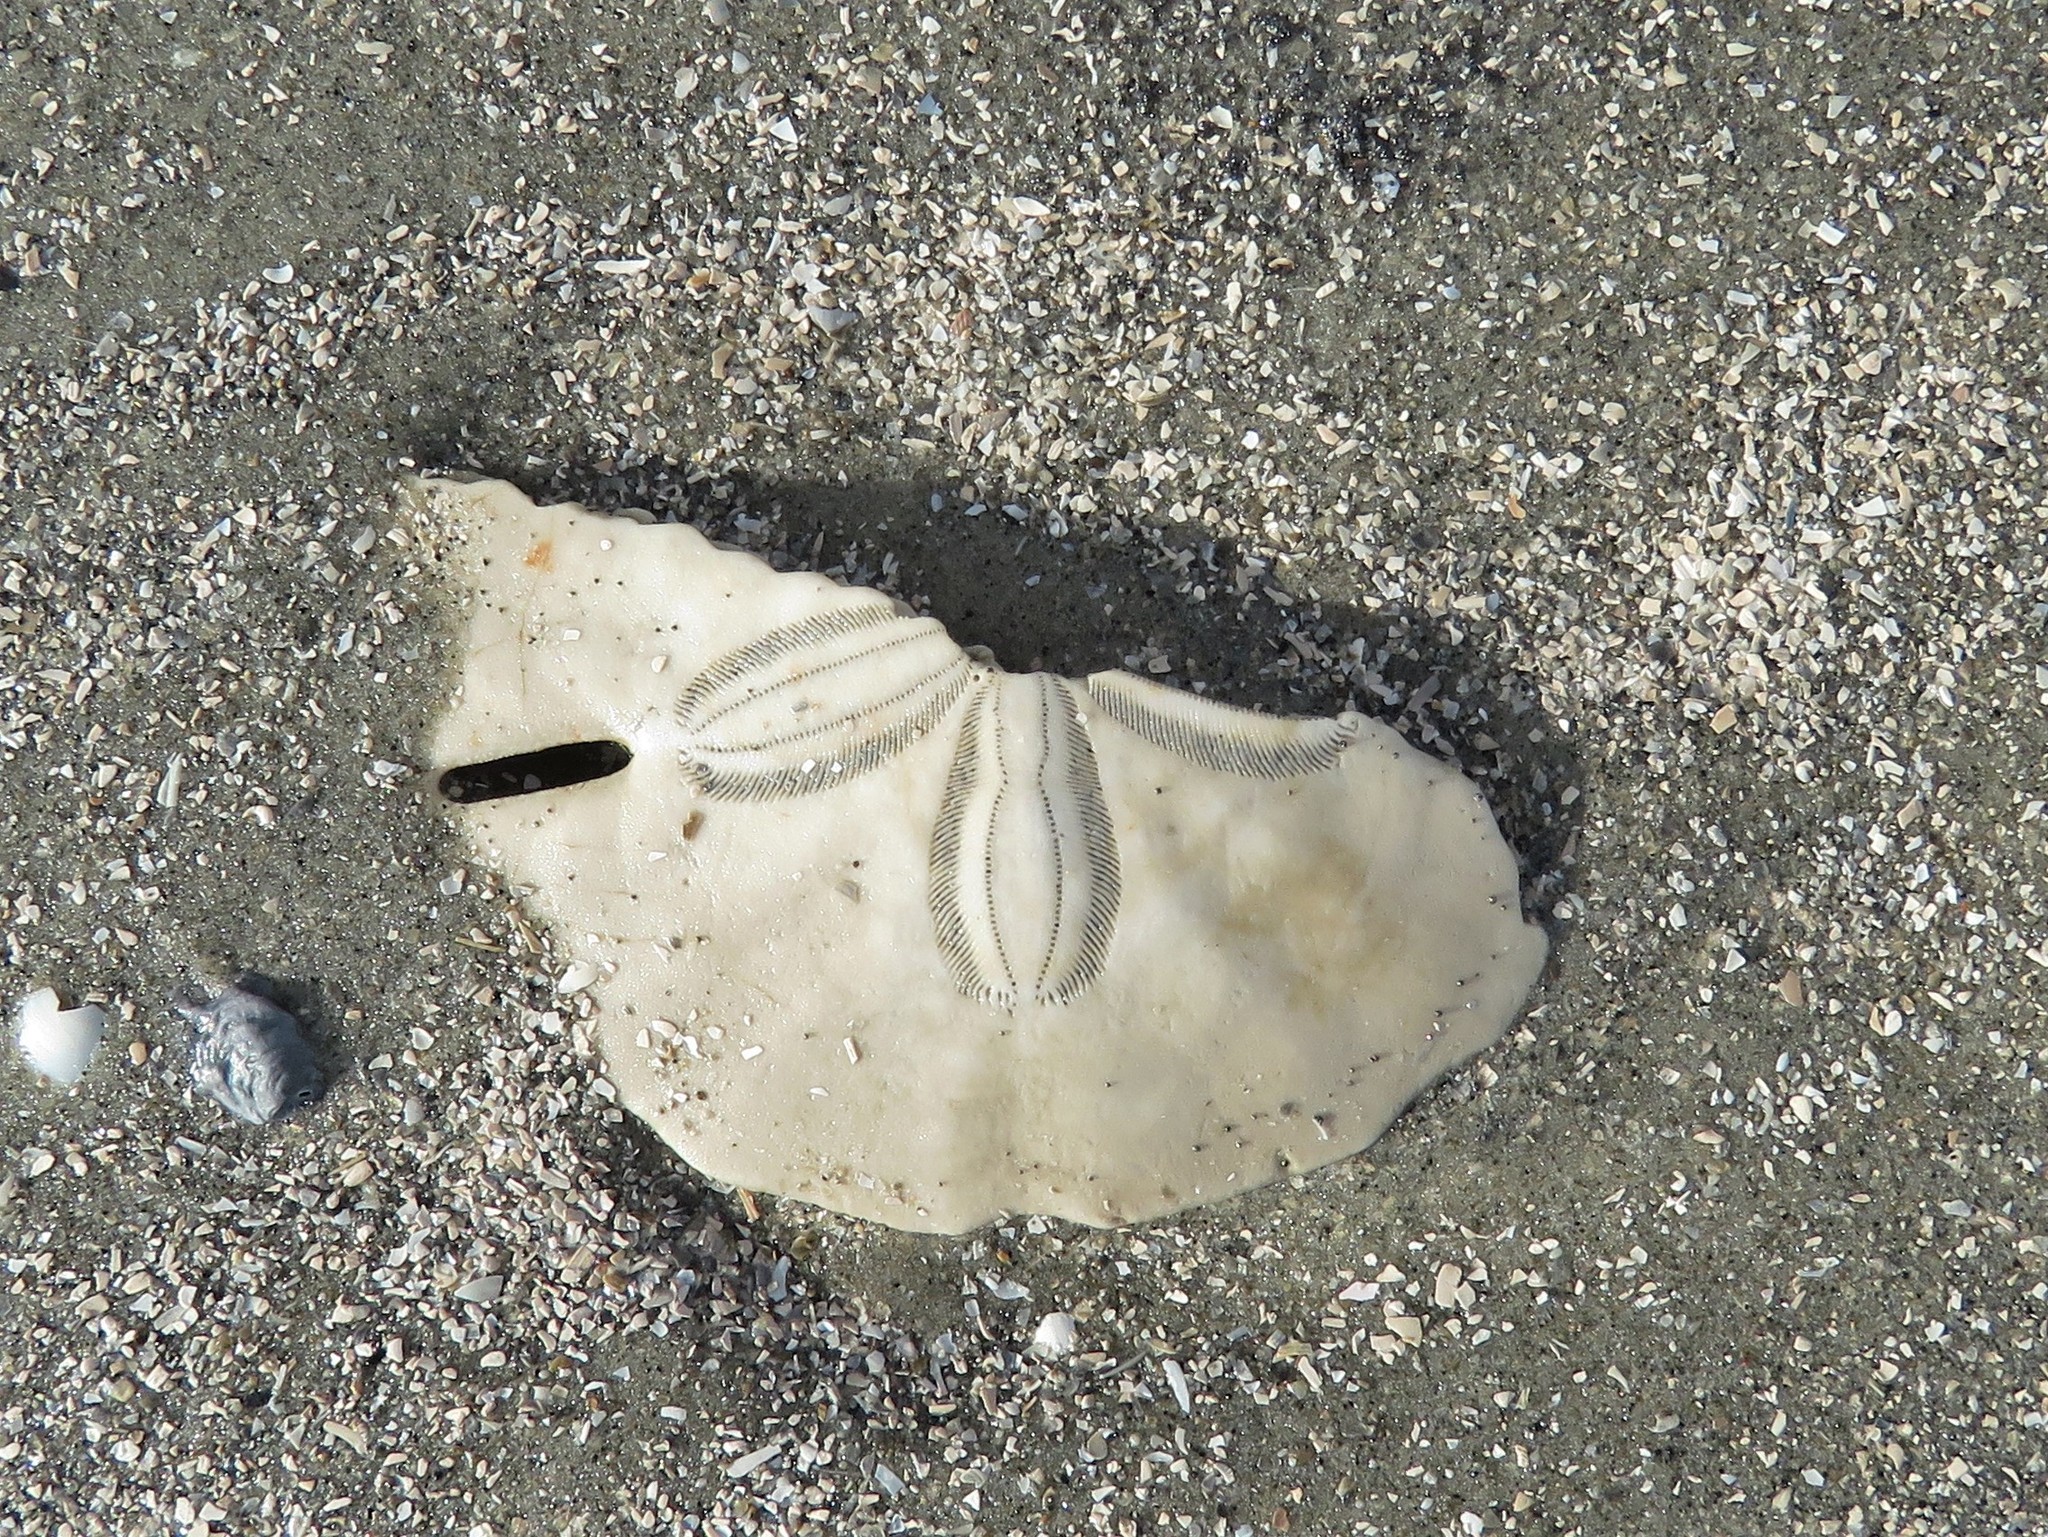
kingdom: Animalia
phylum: Echinodermata
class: Echinoidea
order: Echinolampadacea
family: Mellitidae
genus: Mellita
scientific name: Mellita quinquiesperforata
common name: Sand dollar
